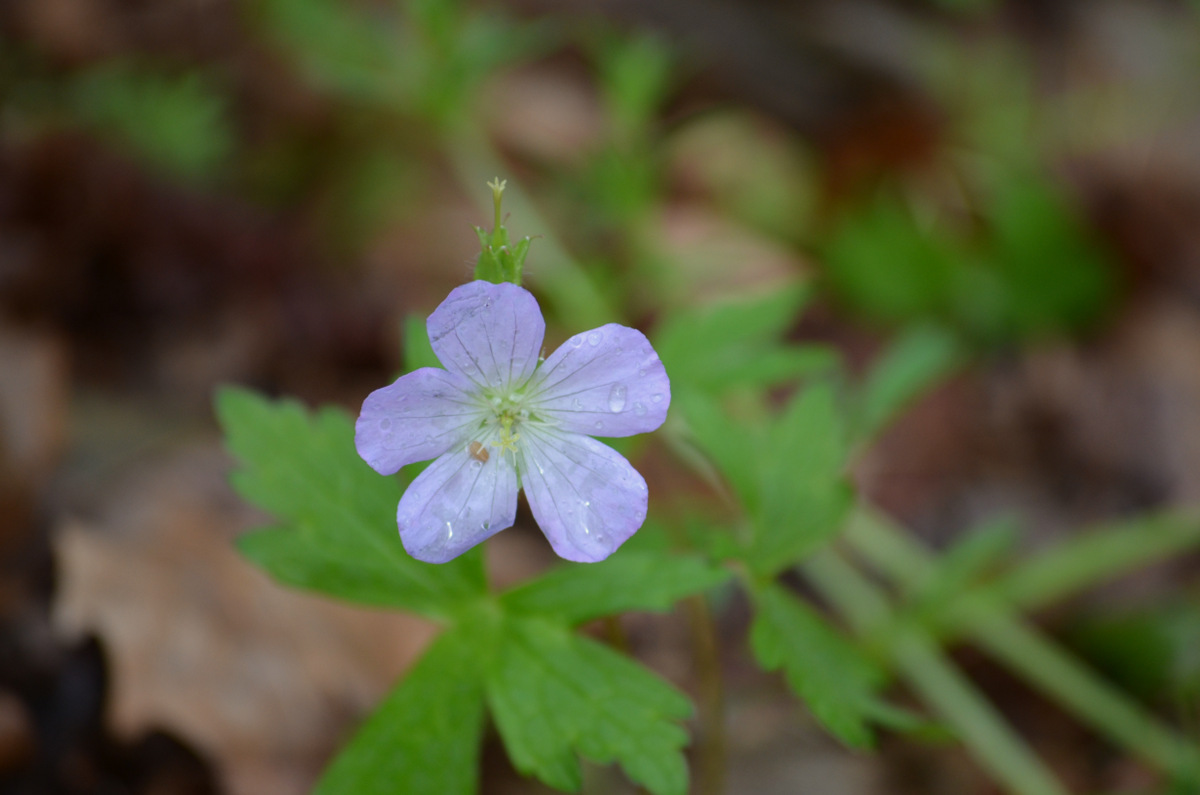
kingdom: Plantae
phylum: Tracheophyta
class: Magnoliopsida
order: Geraniales
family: Geraniaceae
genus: Geranium
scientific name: Geranium maculatum
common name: Spotted geranium
